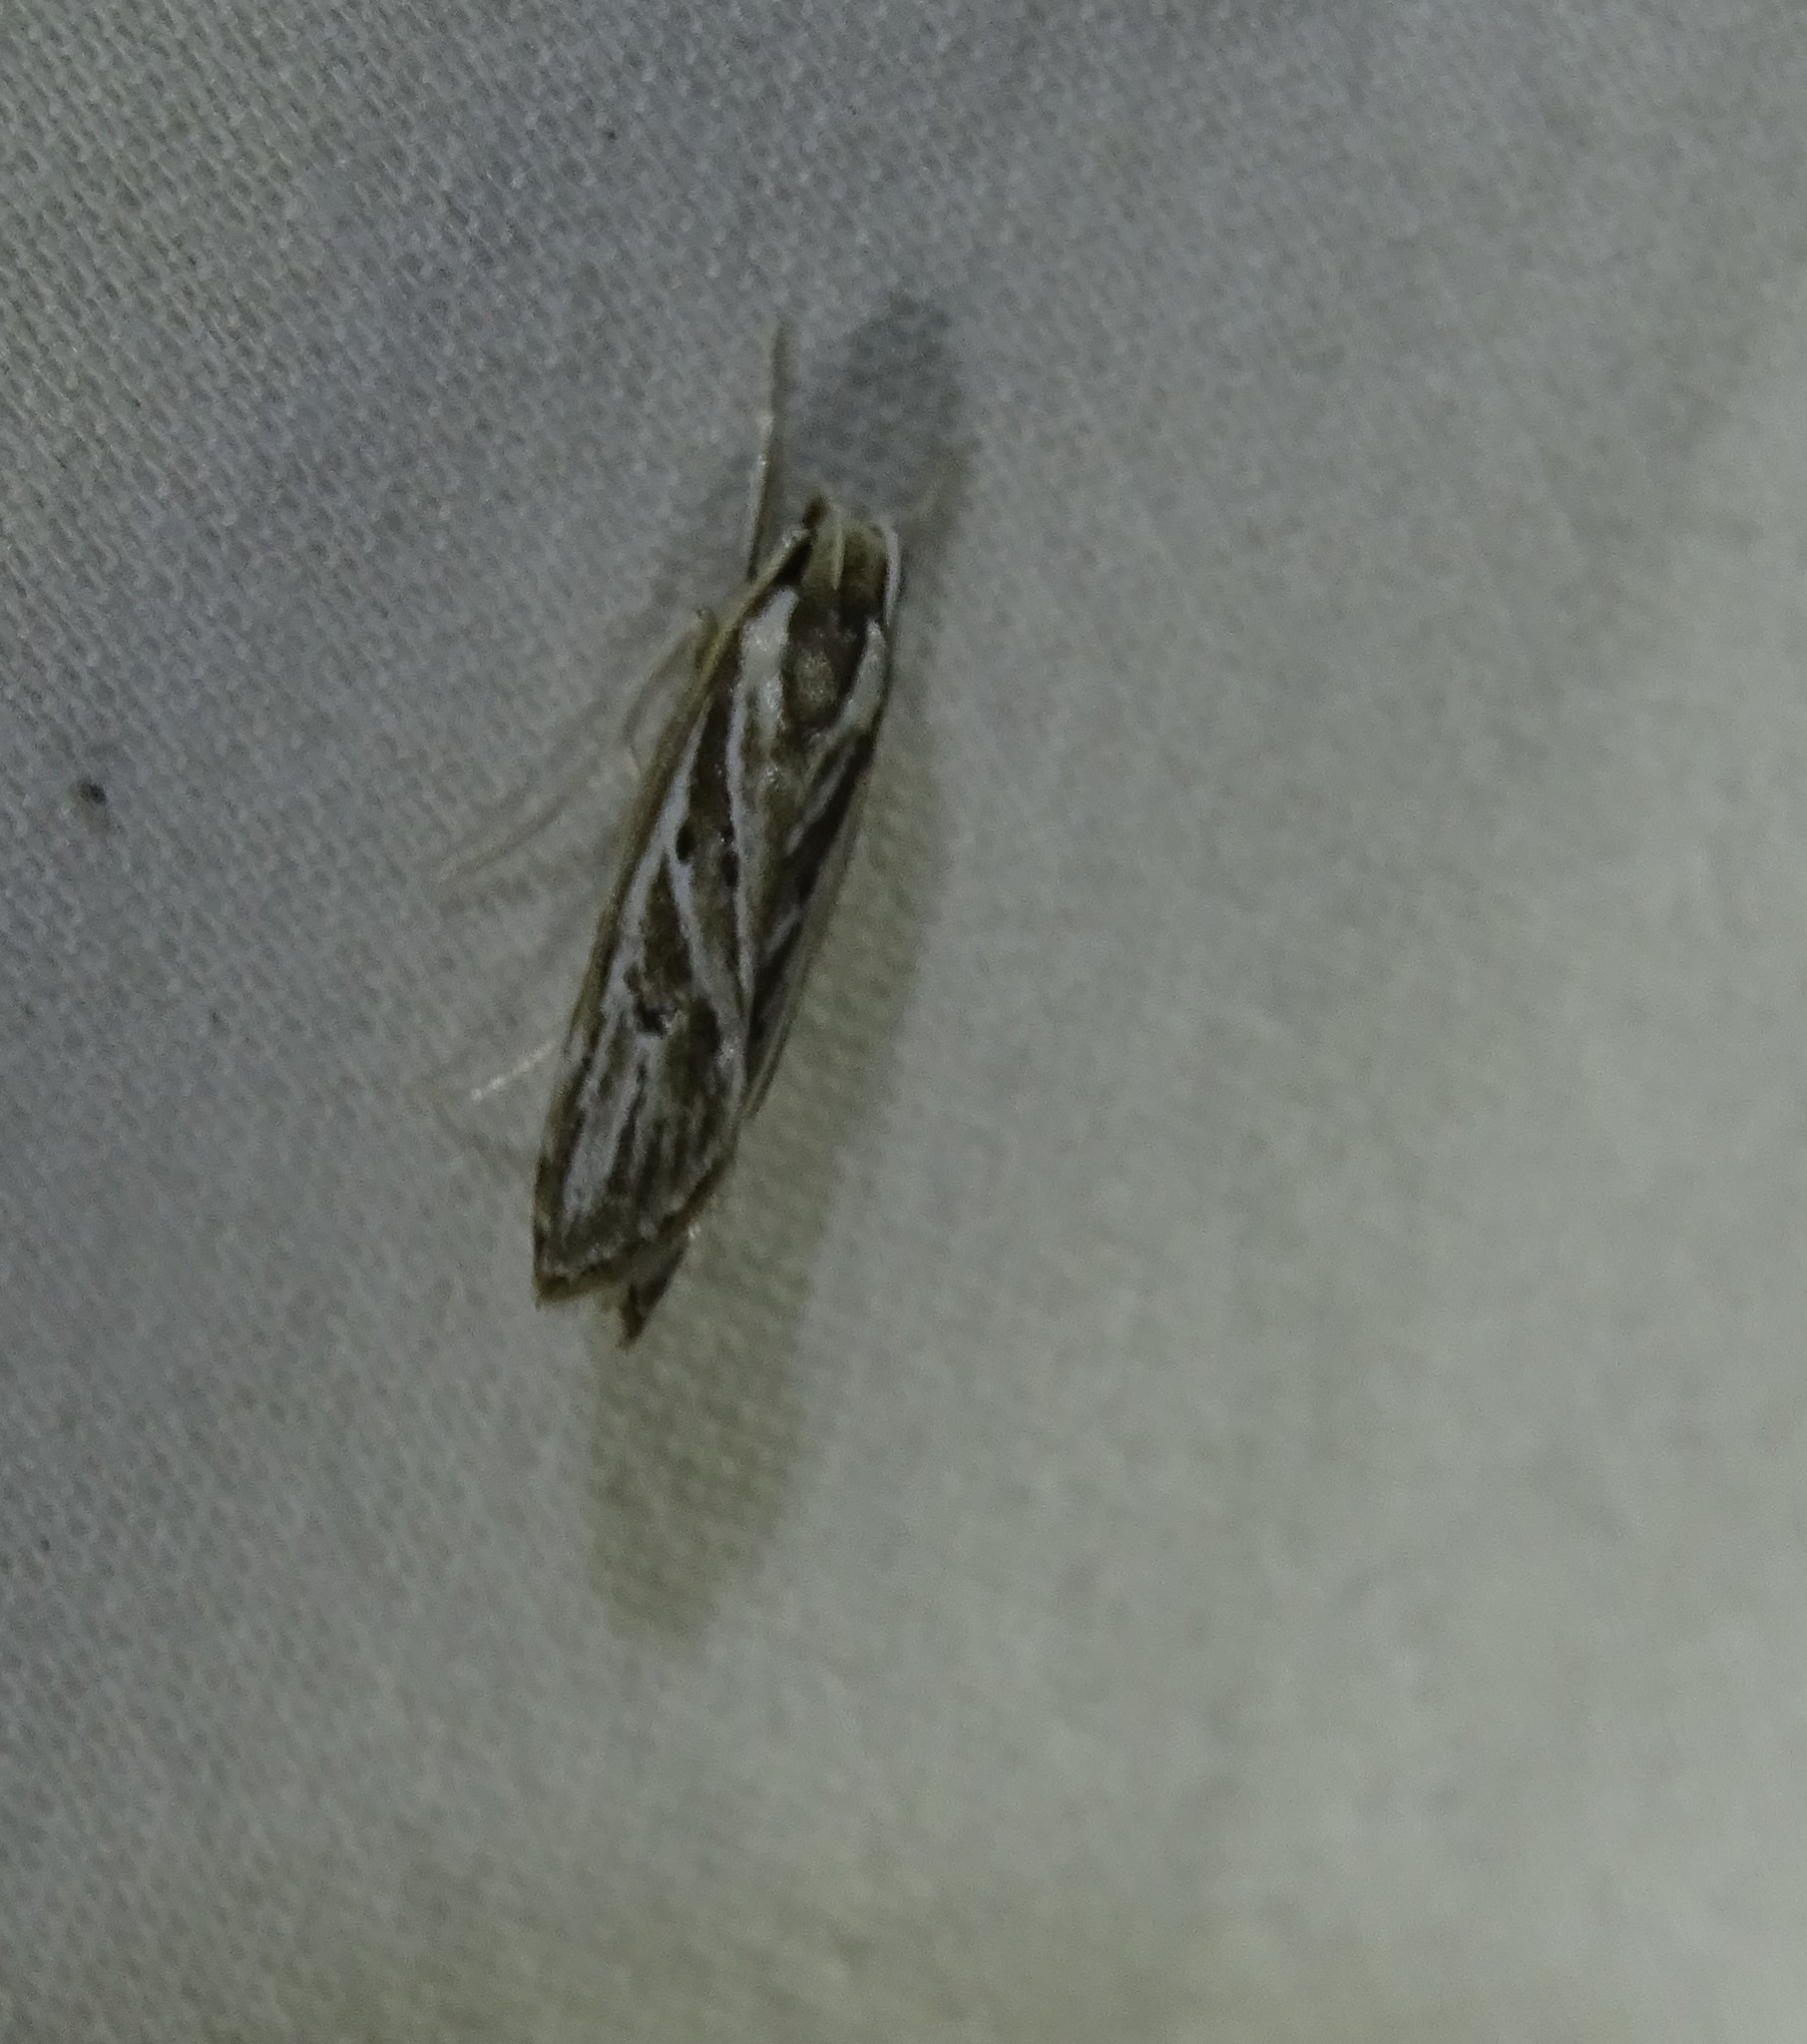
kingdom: Animalia
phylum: Arthropoda
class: Insecta
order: Lepidoptera
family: Depressariidae
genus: Eupragia
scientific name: Eupragia hospita
